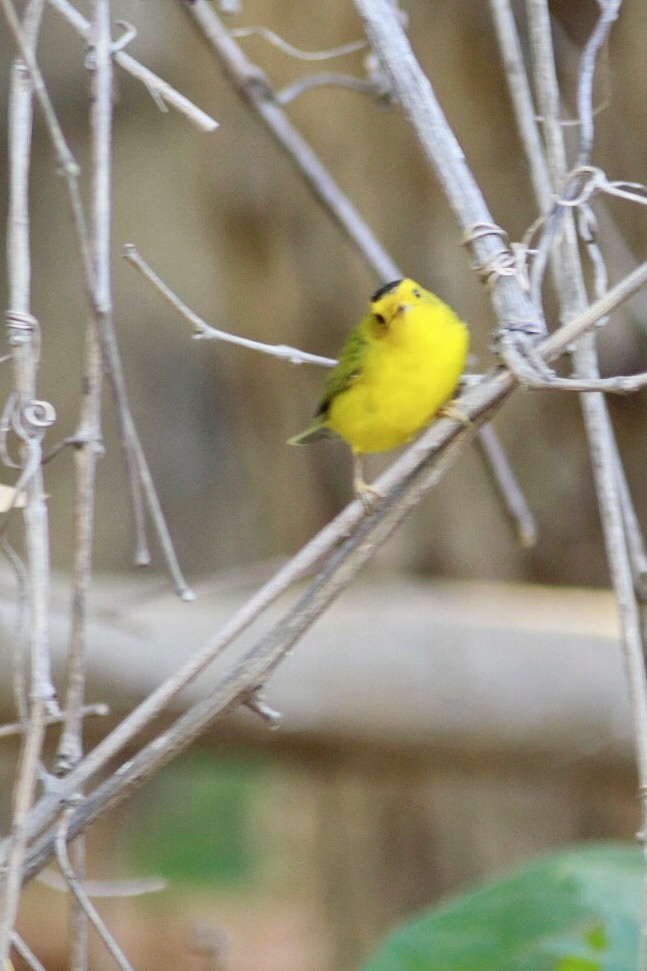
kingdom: Animalia
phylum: Chordata
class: Aves
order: Passeriformes
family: Parulidae
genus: Cardellina
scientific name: Cardellina pusilla
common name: Wilson's warbler
